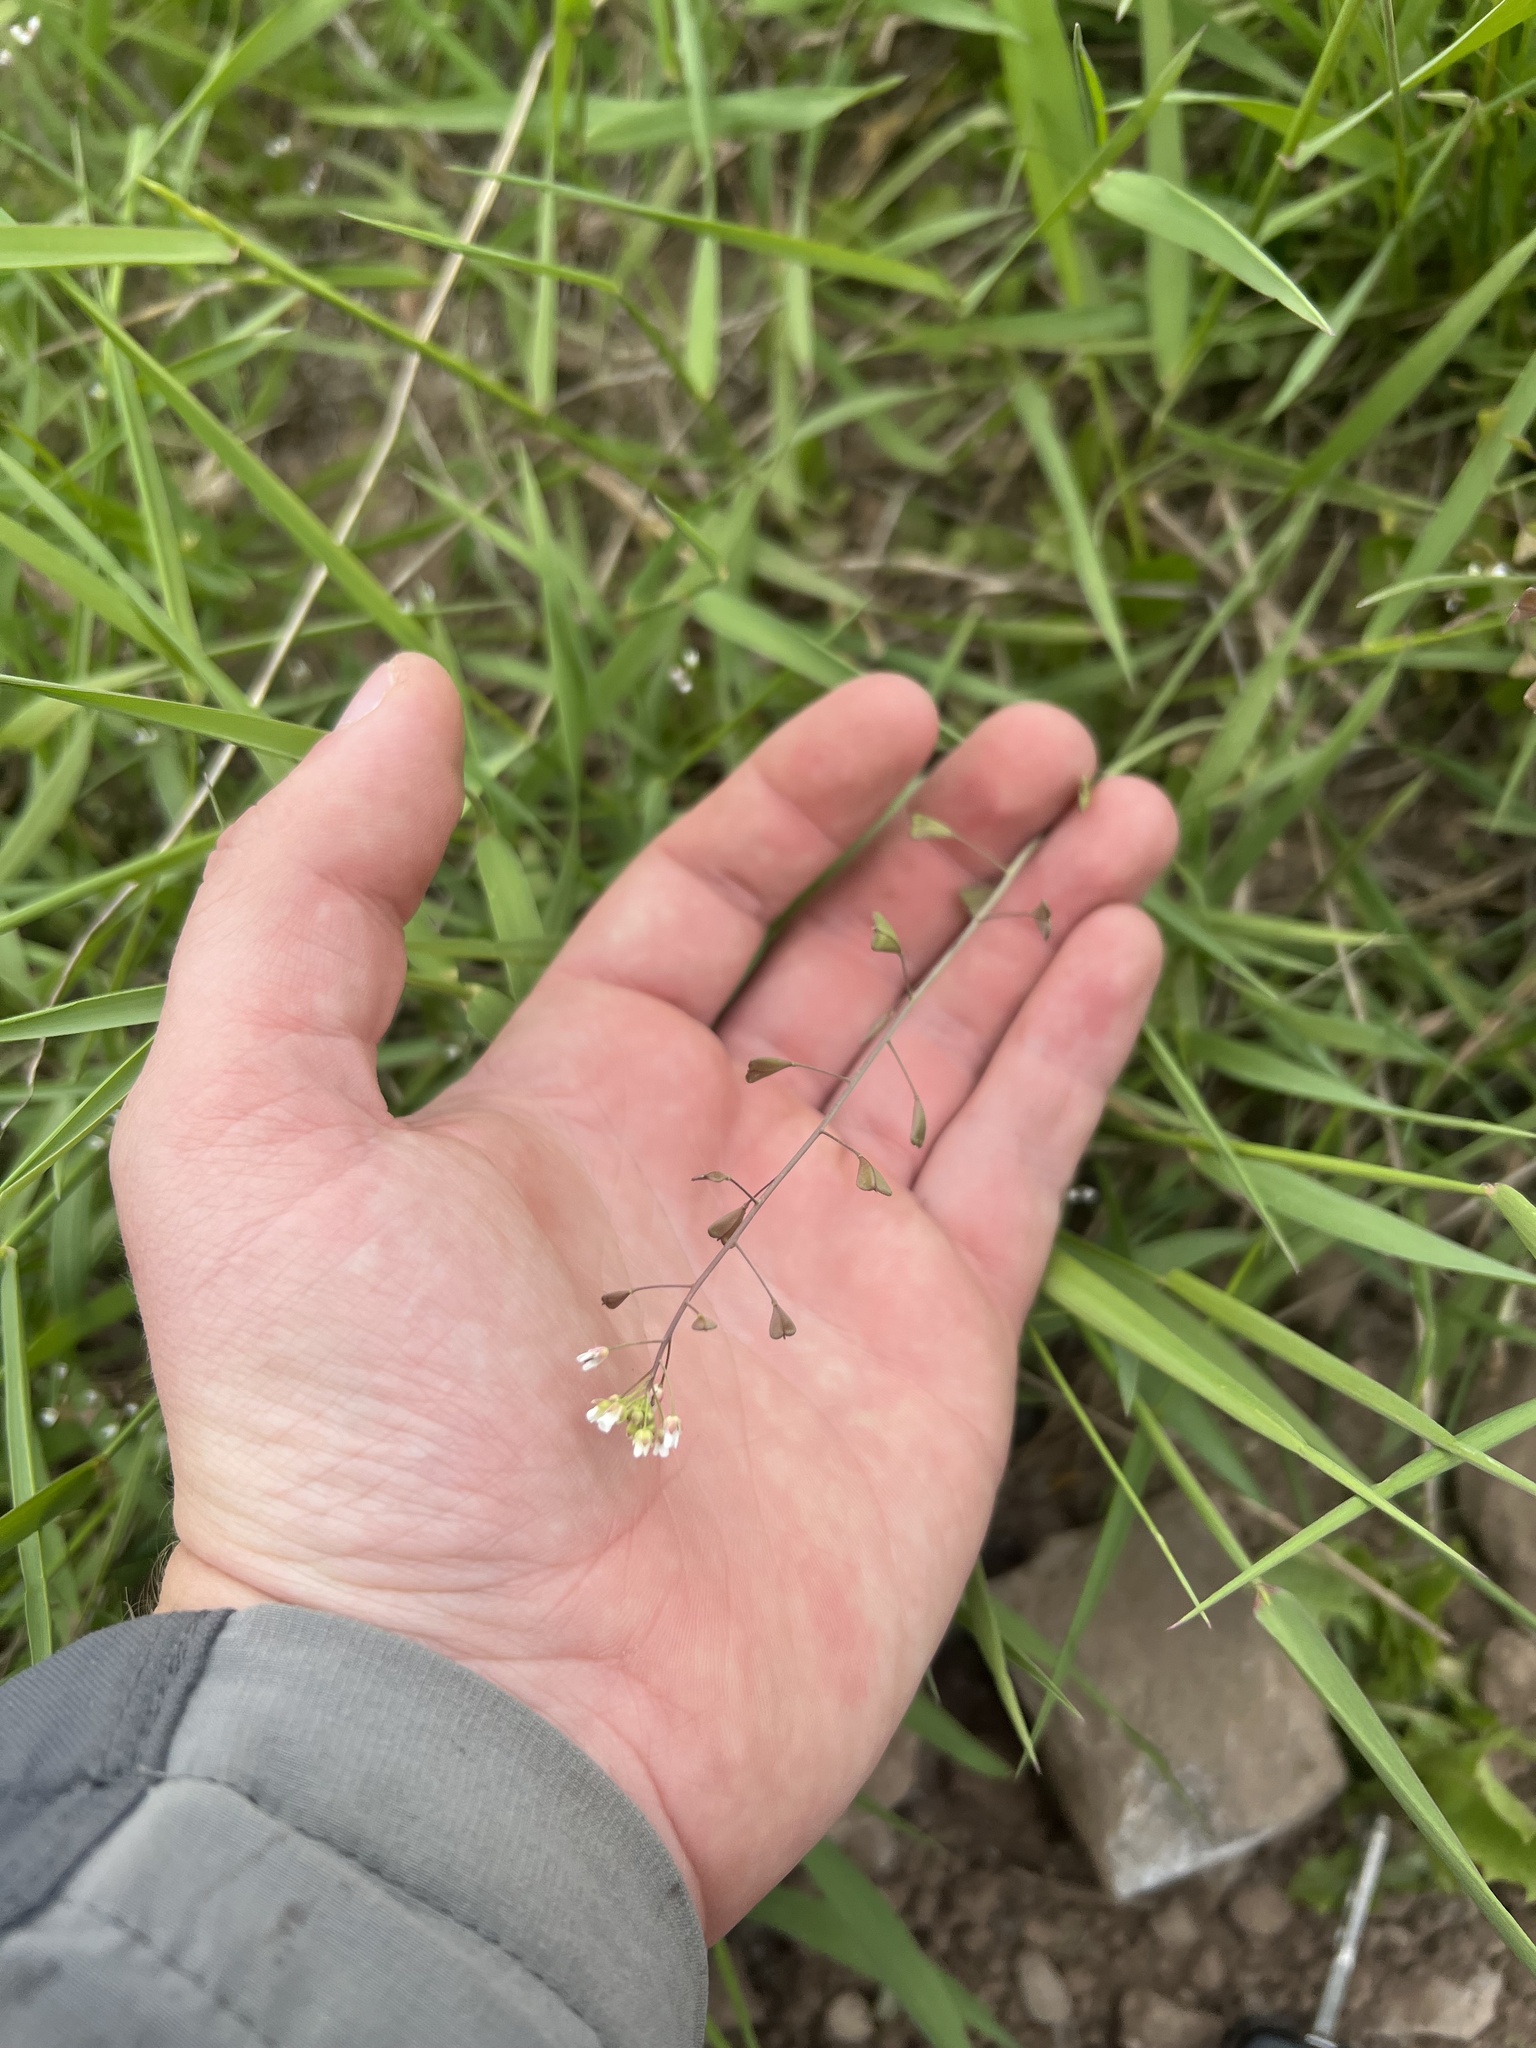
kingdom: Plantae
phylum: Tracheophyta
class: Magnoliopsida
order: Brassicales
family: Brassicaceae
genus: Capsella
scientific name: Capsella bursa-pastoris
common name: Shepherd's purse
